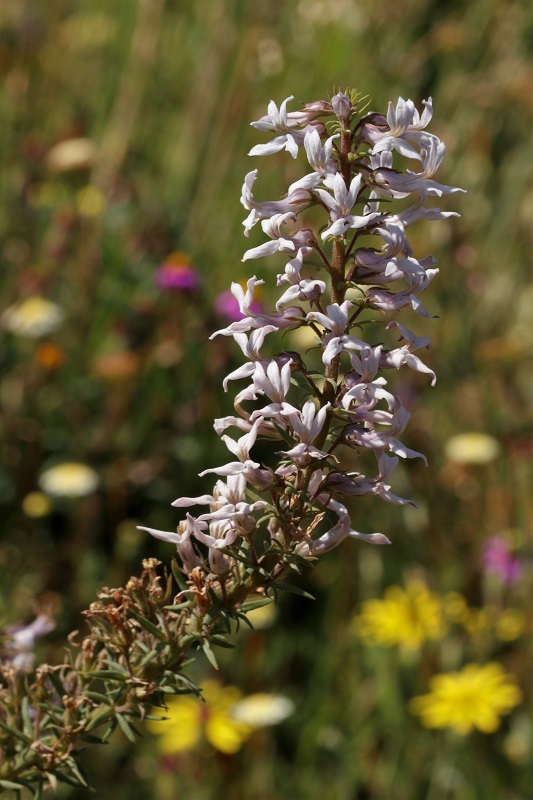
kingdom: Plantae
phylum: Tracheophyta
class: Magnoliopsida
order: Asterales
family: Campanulaceae
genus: Cyphia
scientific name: Cyphia bulbosa
